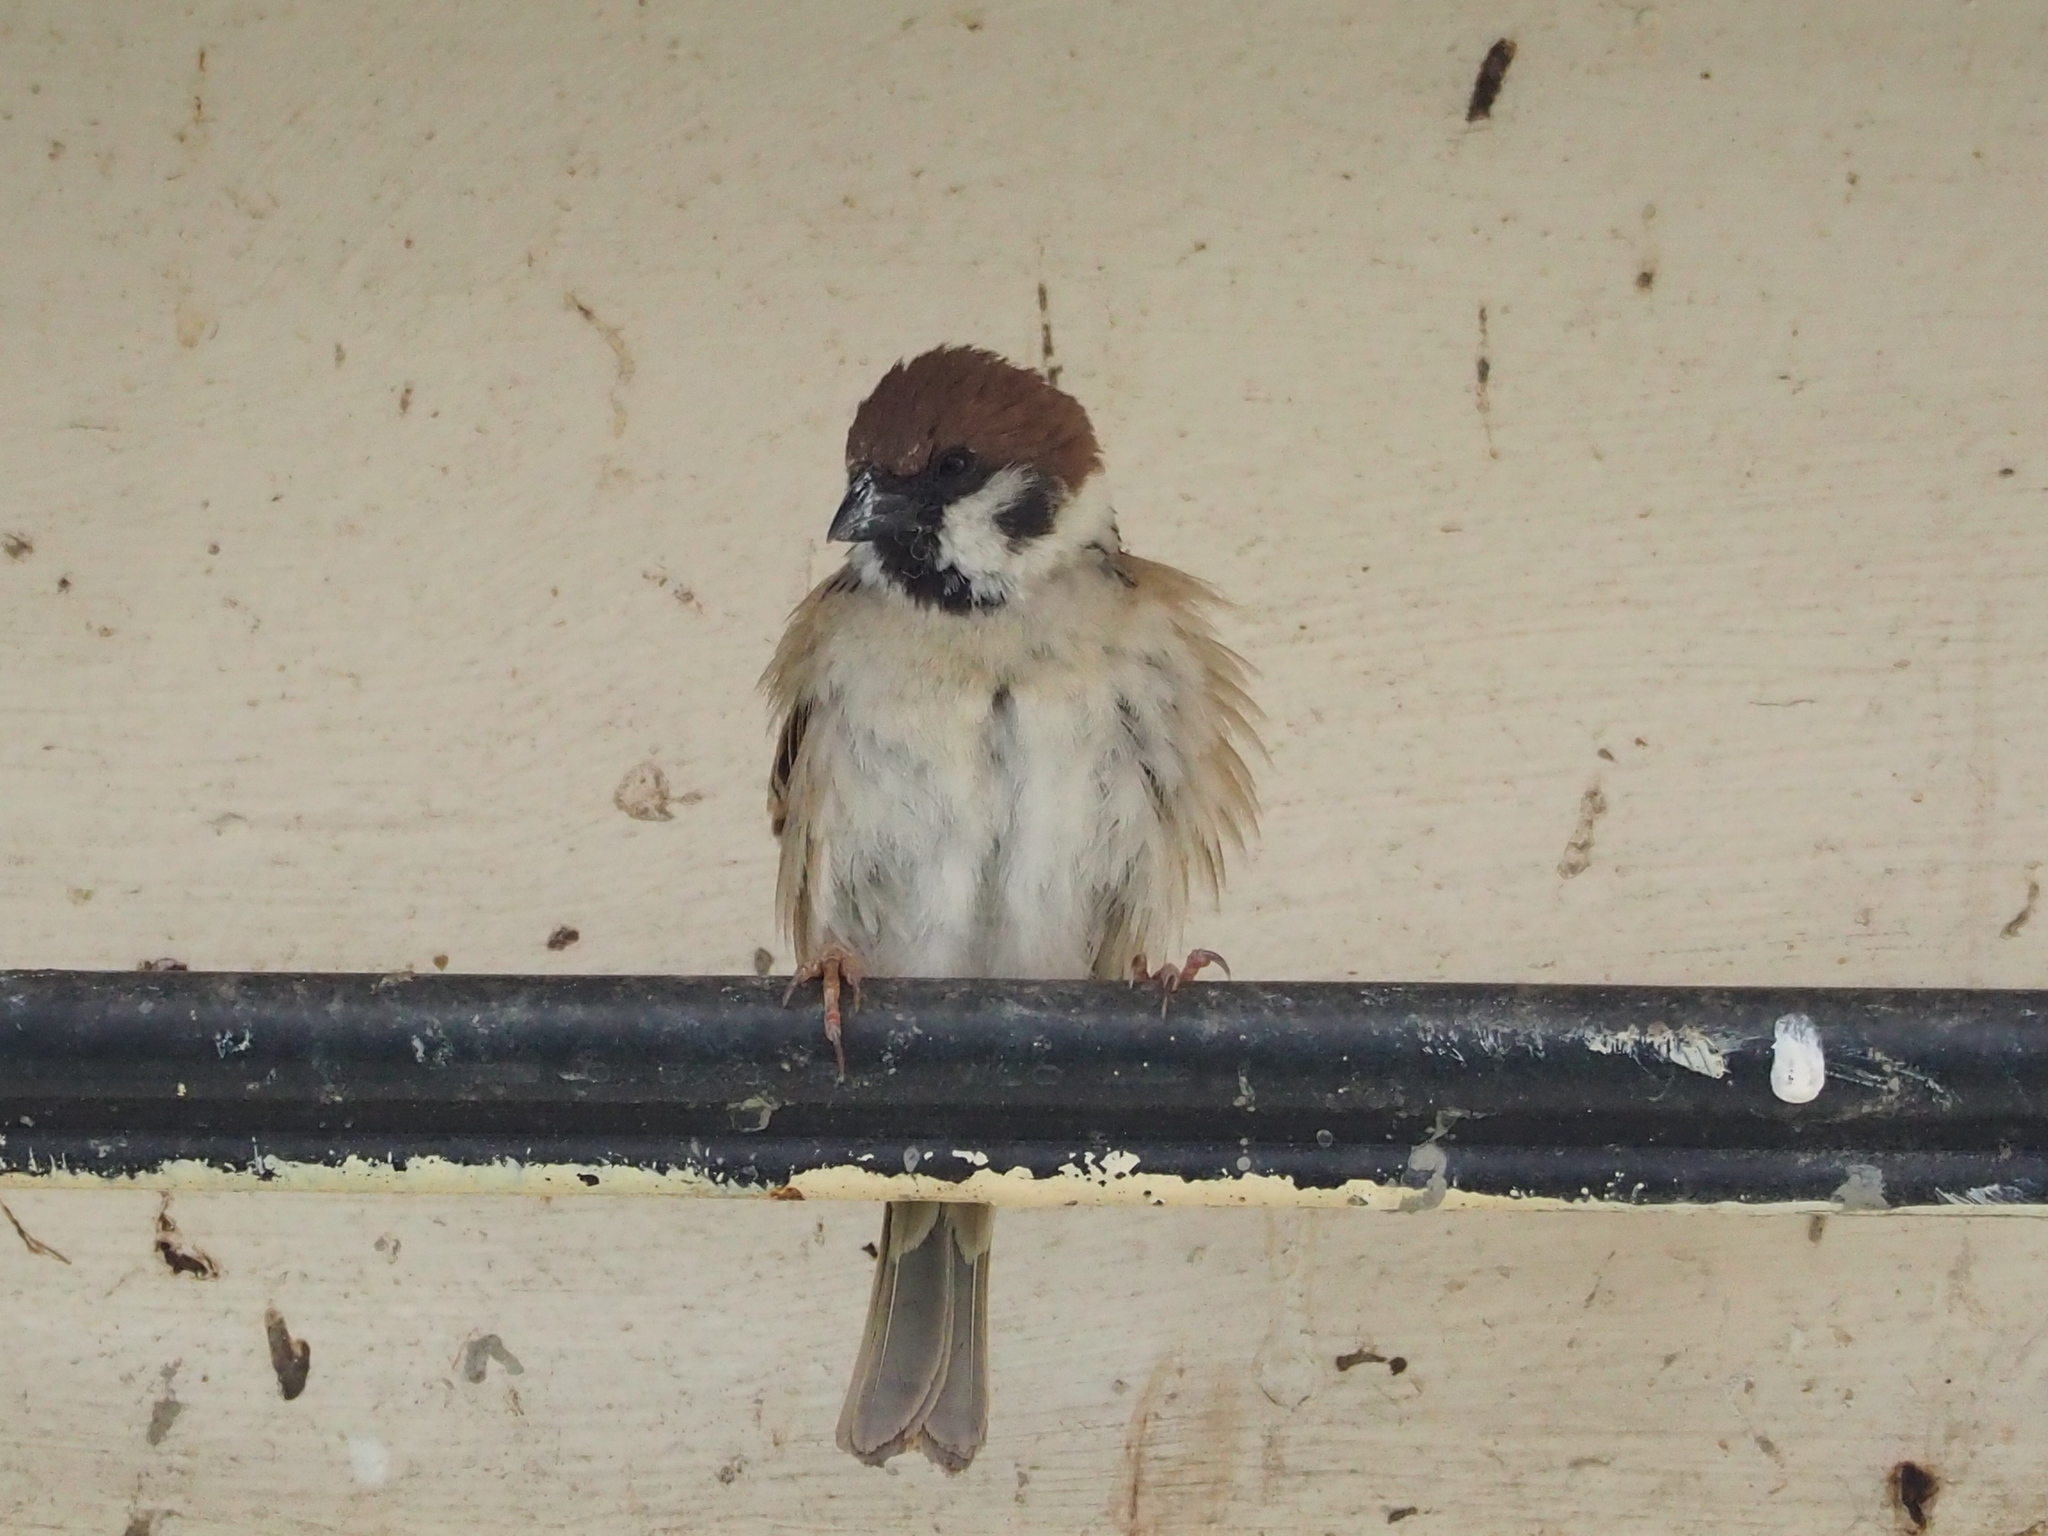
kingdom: Animalia
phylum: Chordata
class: Aves
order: Passeriformes
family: Passeridae
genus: Passer
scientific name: Passer montanus
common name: Eurasian tree sparrow
